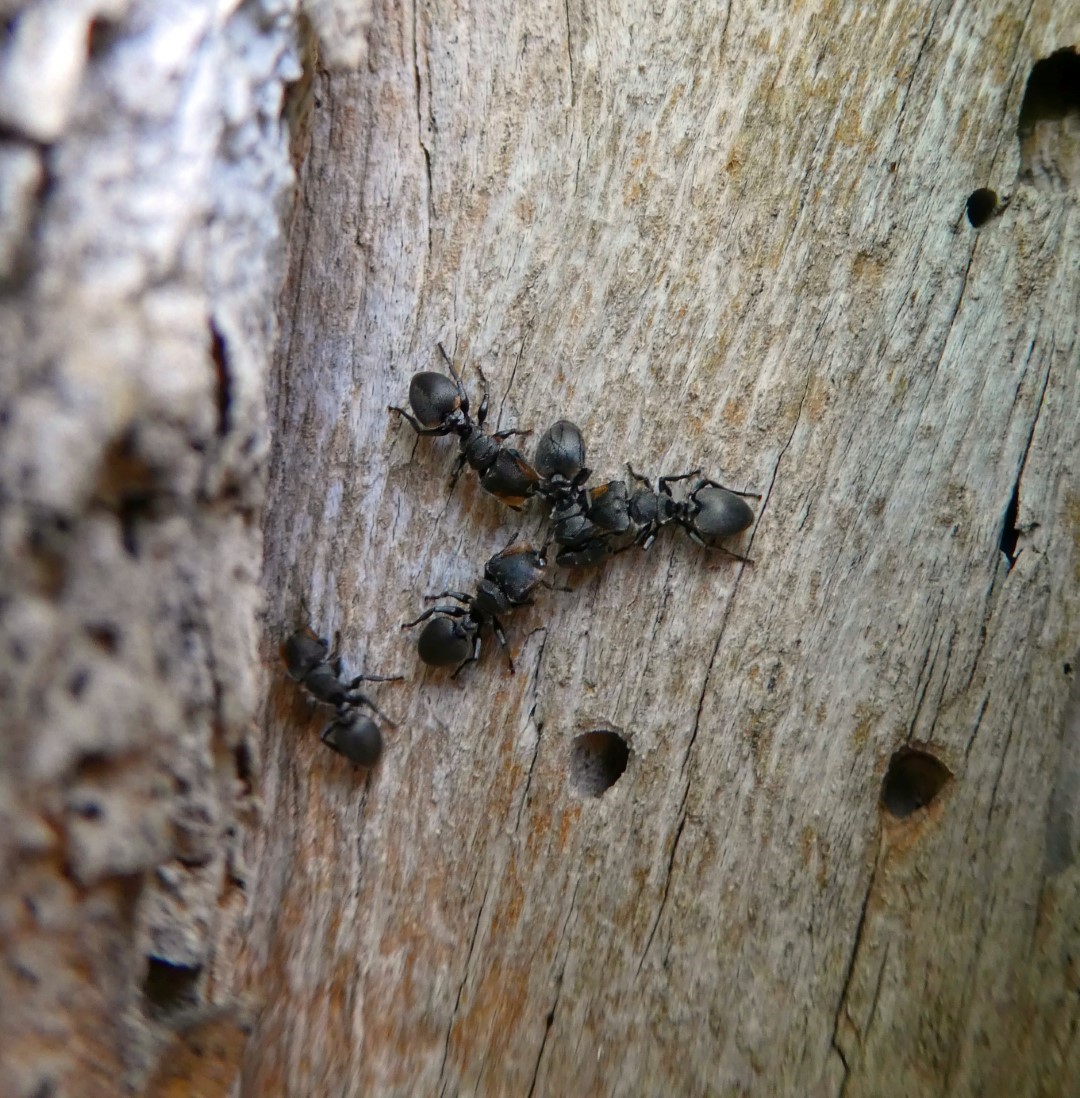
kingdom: Animalia
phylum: Arthropoda
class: Insecta
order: Hymenoptera
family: Formicidae
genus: Cephalotes
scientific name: Cephalotes multispinosus
